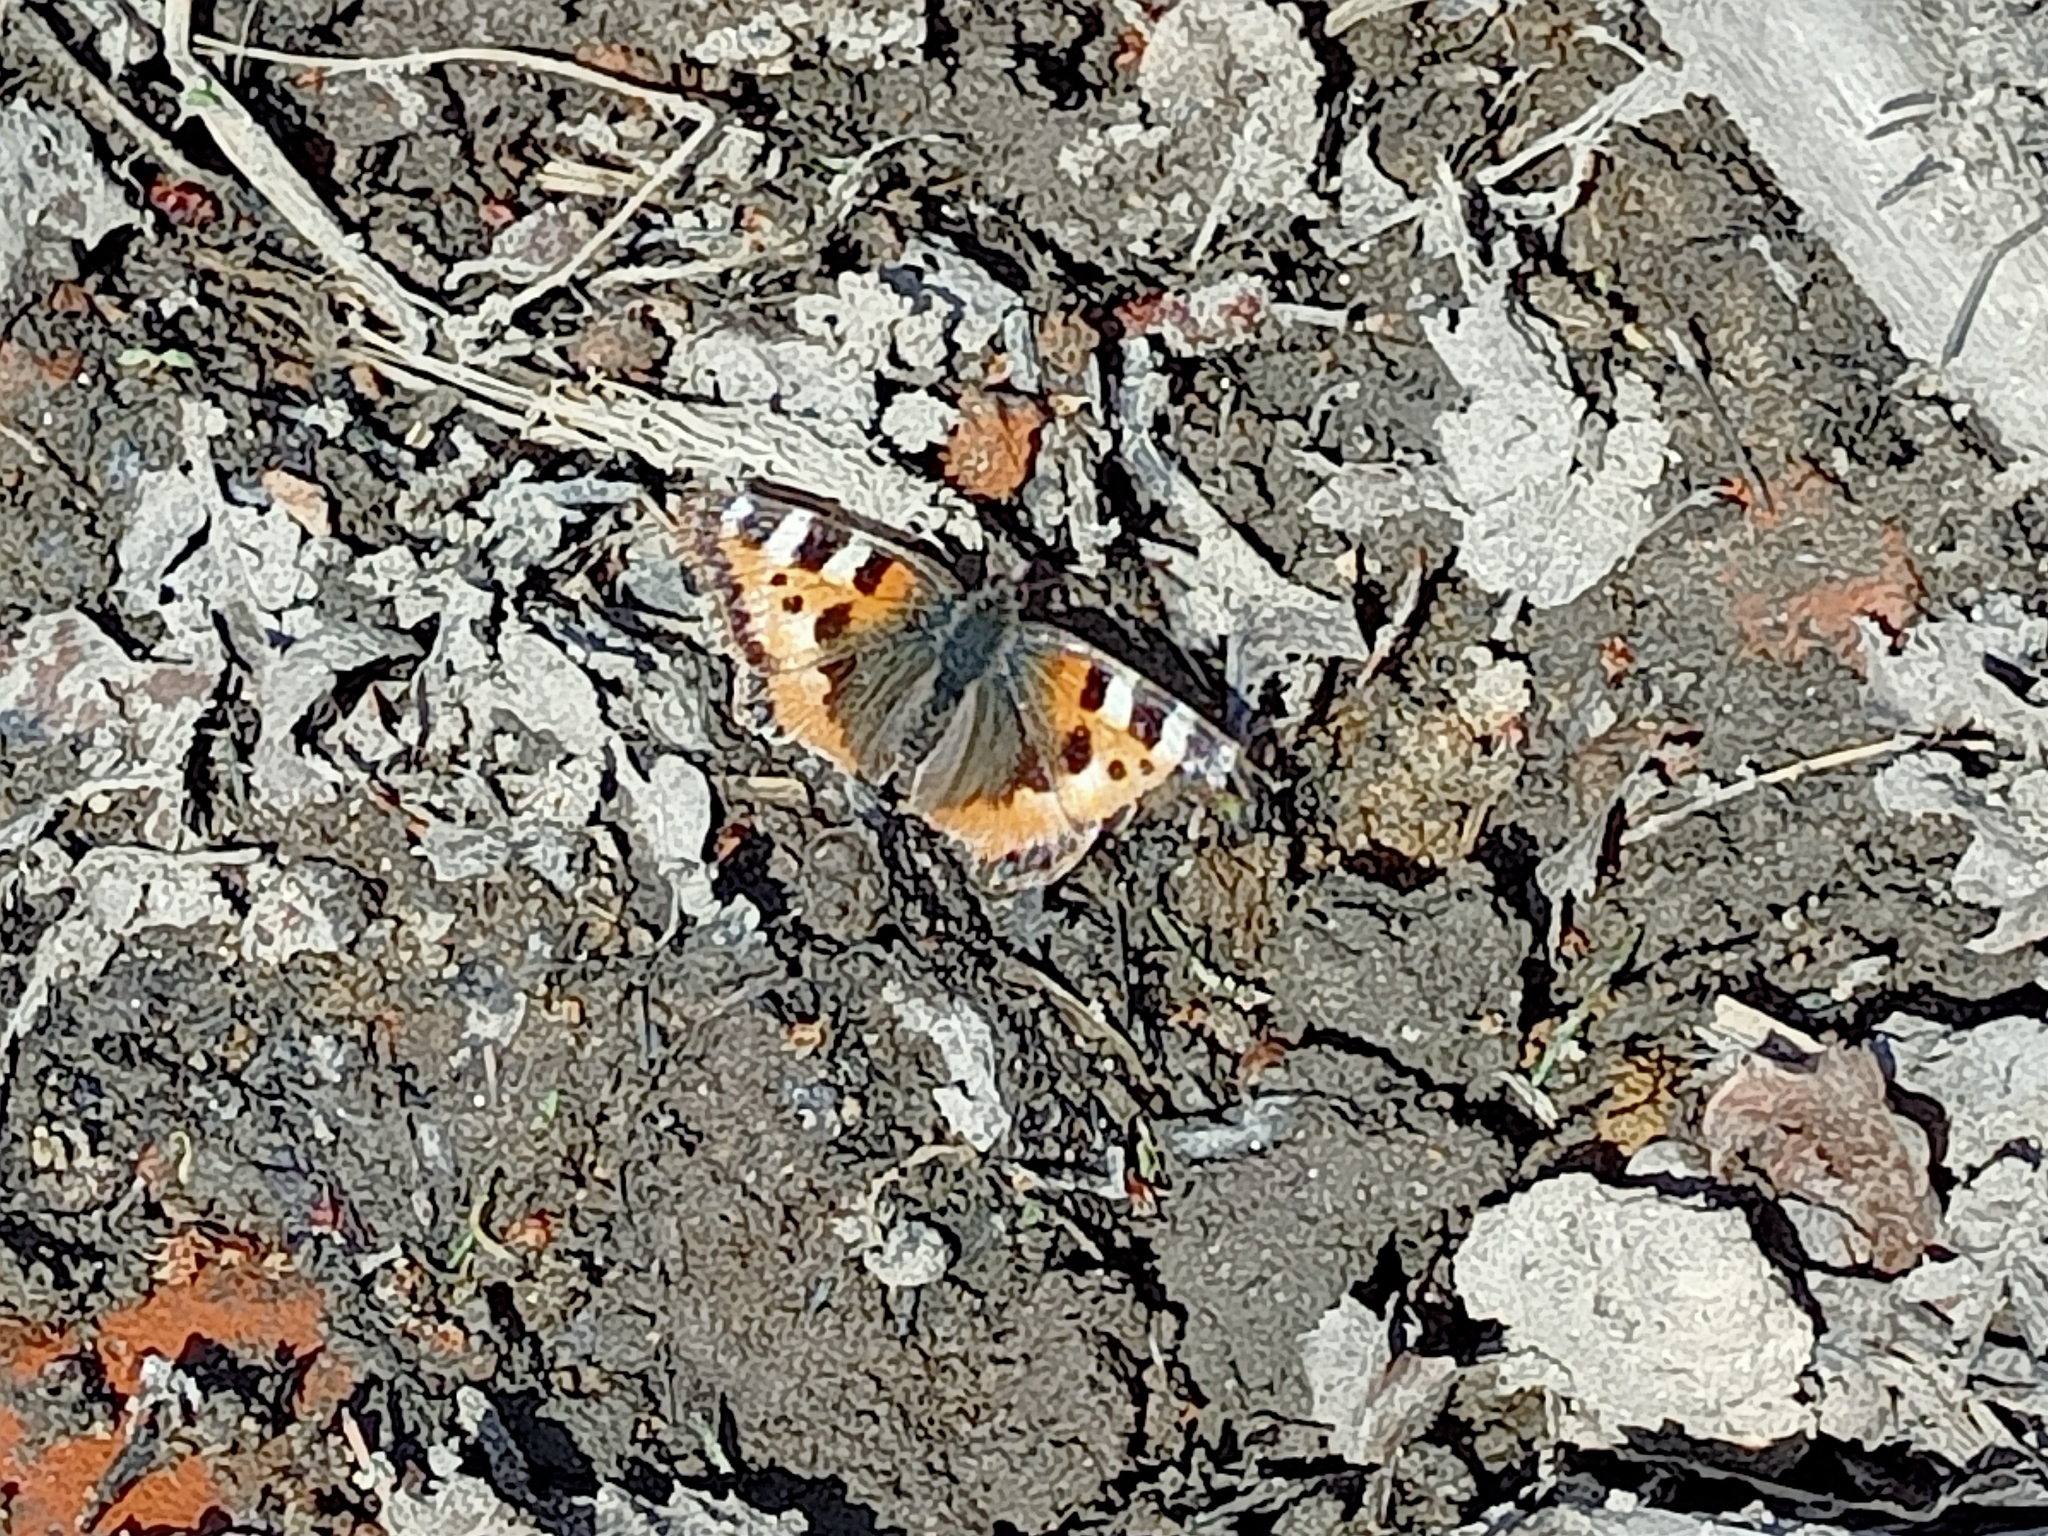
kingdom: Animalia
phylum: Arthropoda
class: Insecta
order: Lepidoptera
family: Nymphalidae
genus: Aglais
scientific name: Aglais urticae
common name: Small tortoiseshell
